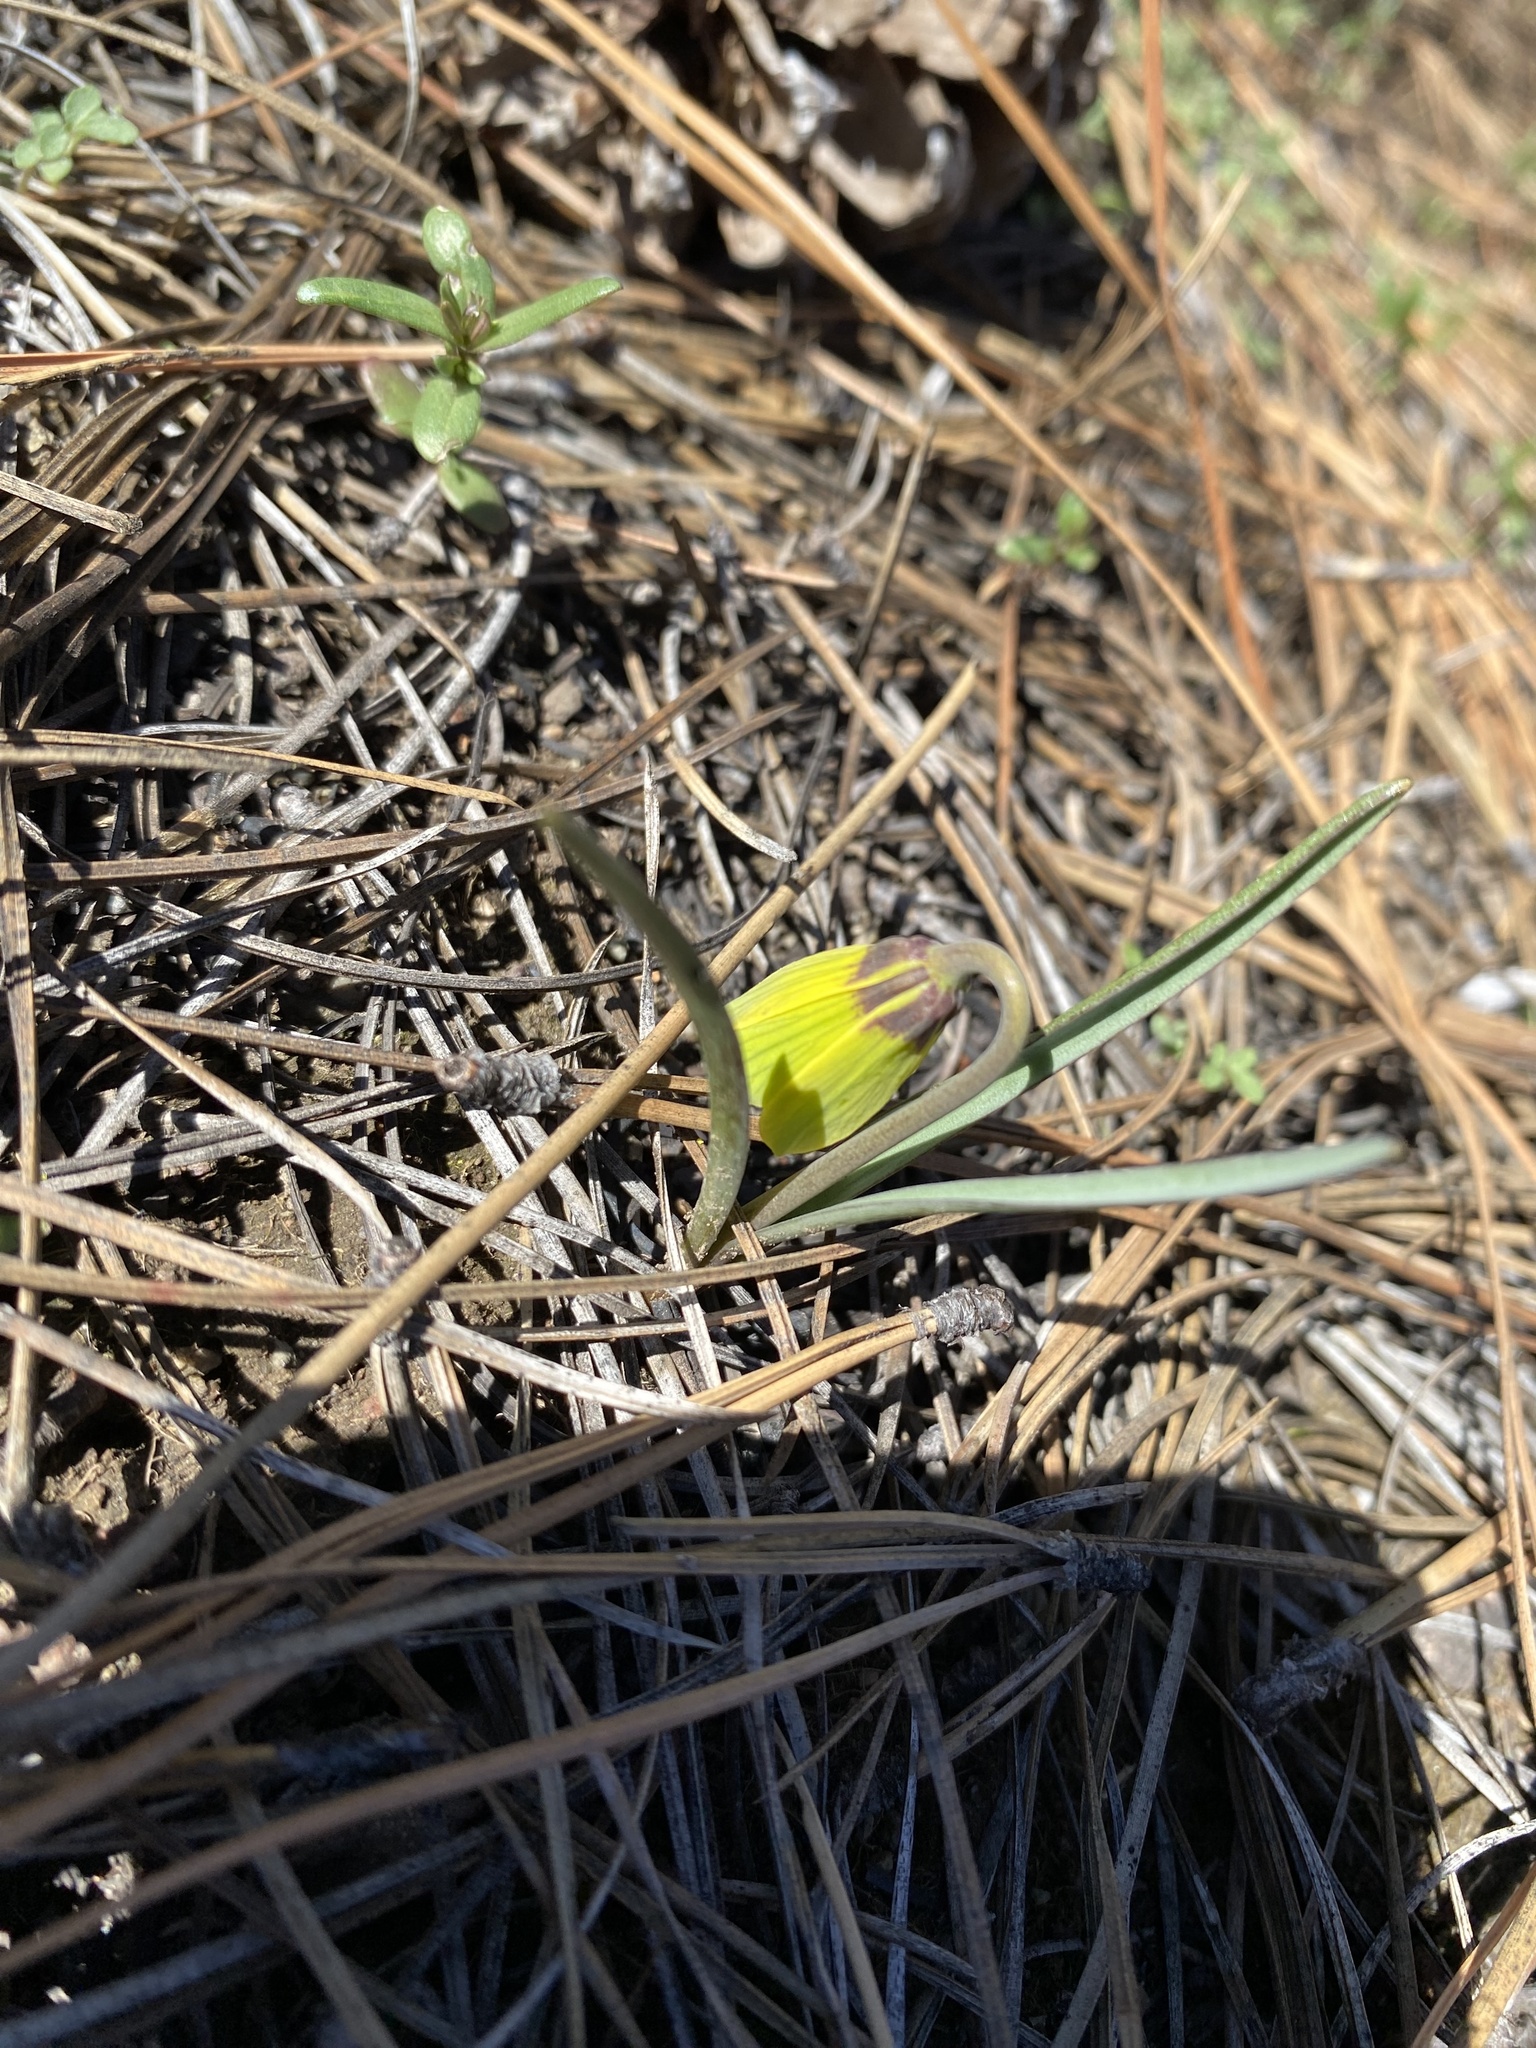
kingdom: Plantae
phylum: Tracheophyta
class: Liliopsida
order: Liliales
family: Liliaceae
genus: Fritillaria
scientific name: Fritillaria pudica
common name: Yellow fritillary
